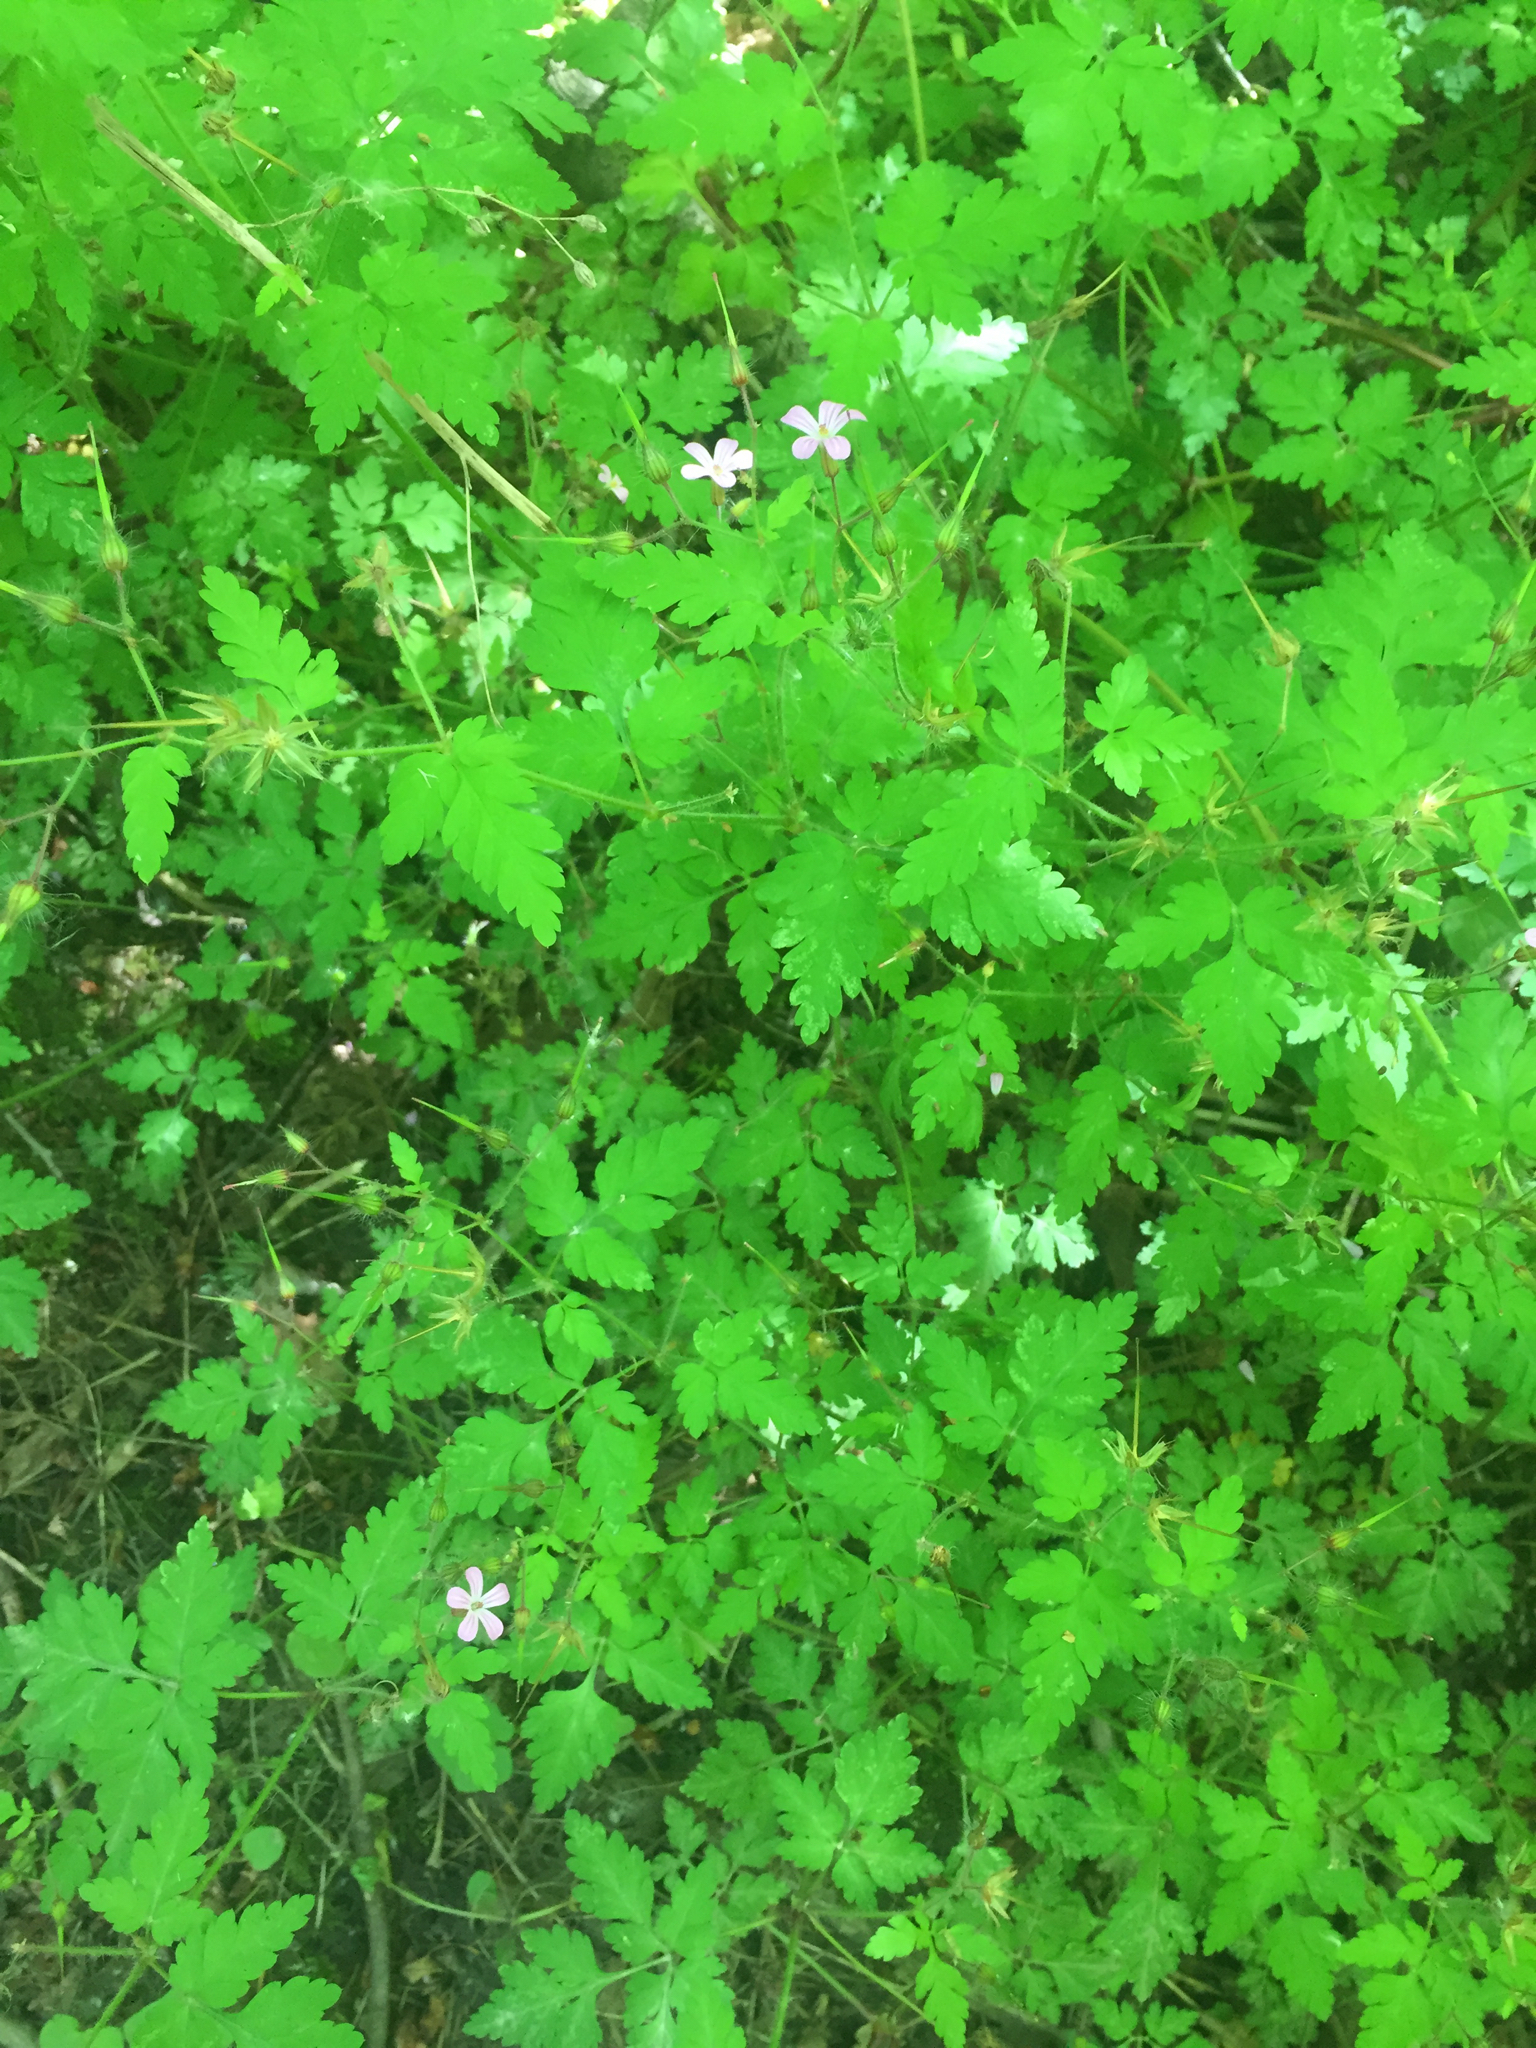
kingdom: Plantae
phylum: Tracheophyta
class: Magnoliopsida
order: Geraniales
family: Geraniaceae
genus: Geranium
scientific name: Geranium robertianum
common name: Herb-robert
